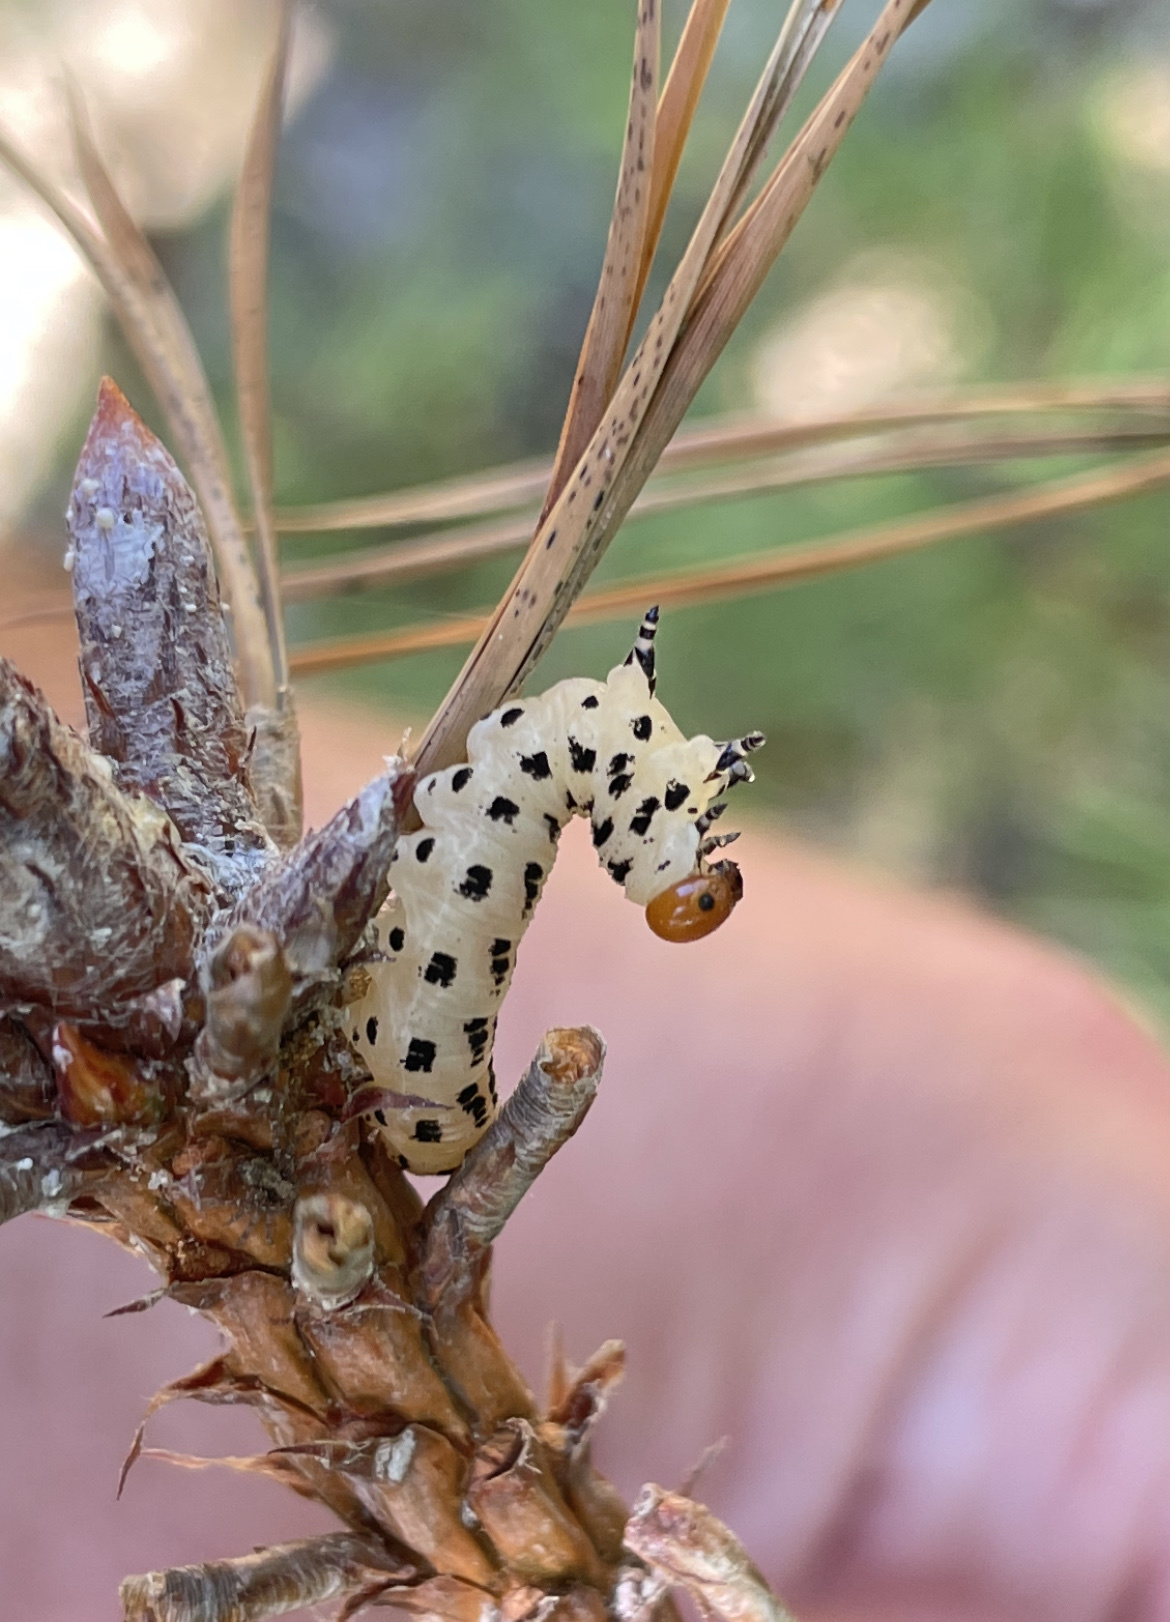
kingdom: Animalia
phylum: Arthropoda
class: Insecta
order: Hymenoptera
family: Diprionidae
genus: Neodiprion
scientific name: Neodiprion lecontei
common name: Redheaded pine sawfly
